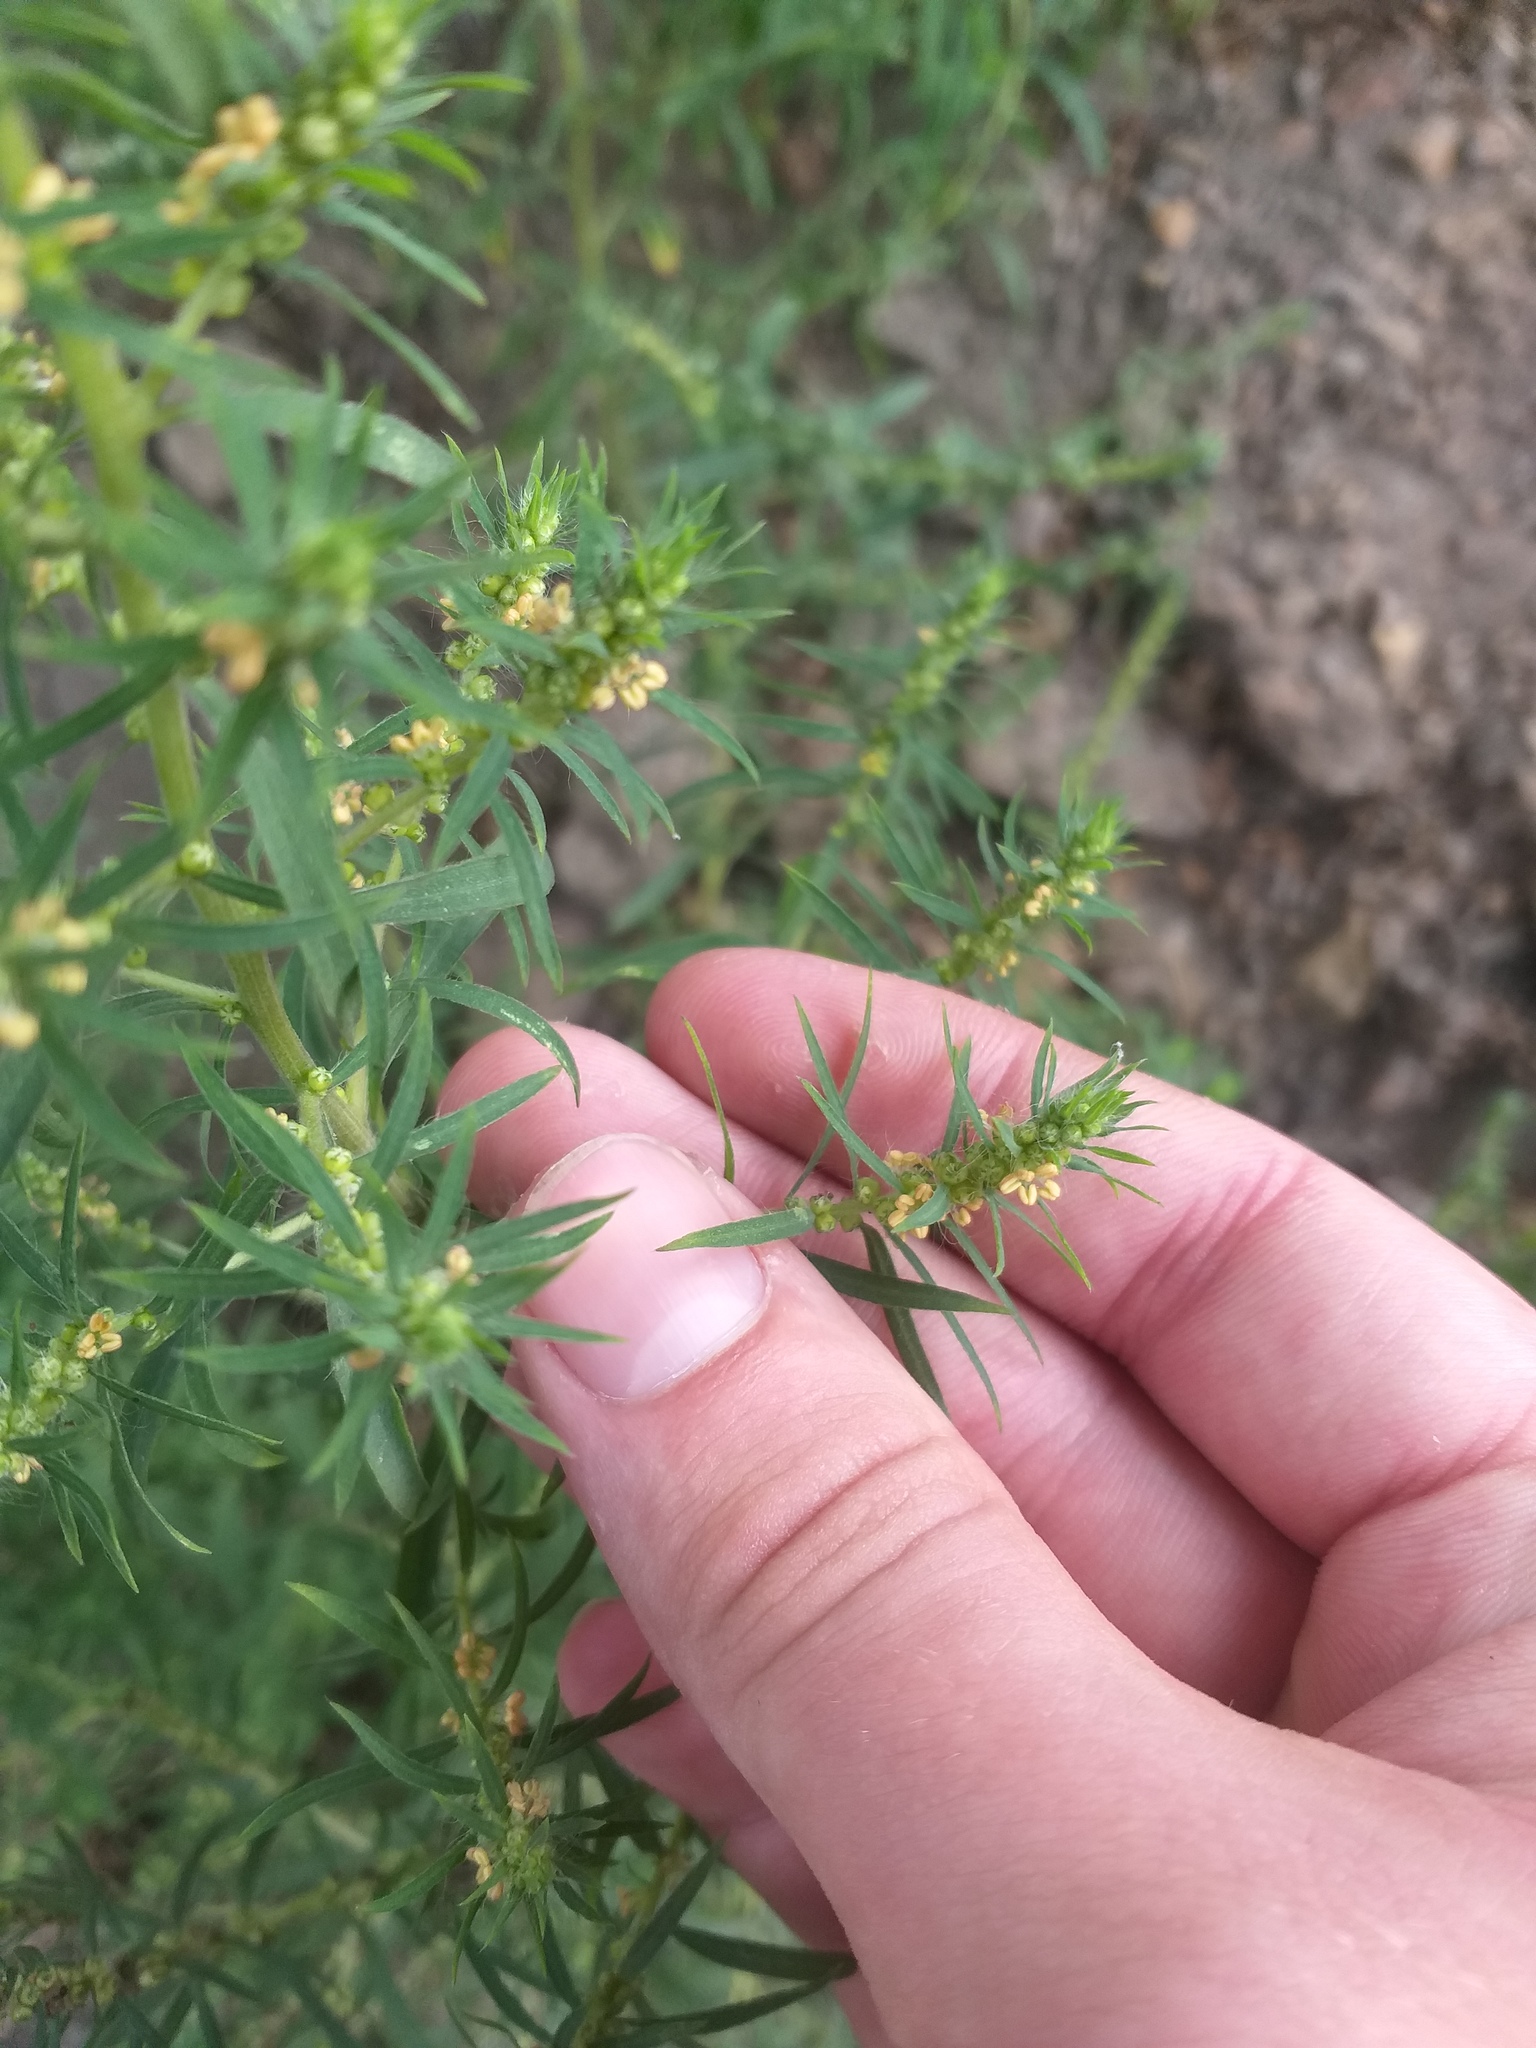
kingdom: Plantae
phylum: Tracheophyta
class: Magnoliopsida
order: Caryophyllales
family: Amaranthaceae
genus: Bassia
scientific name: Bassia scoparia
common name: Belvedere
